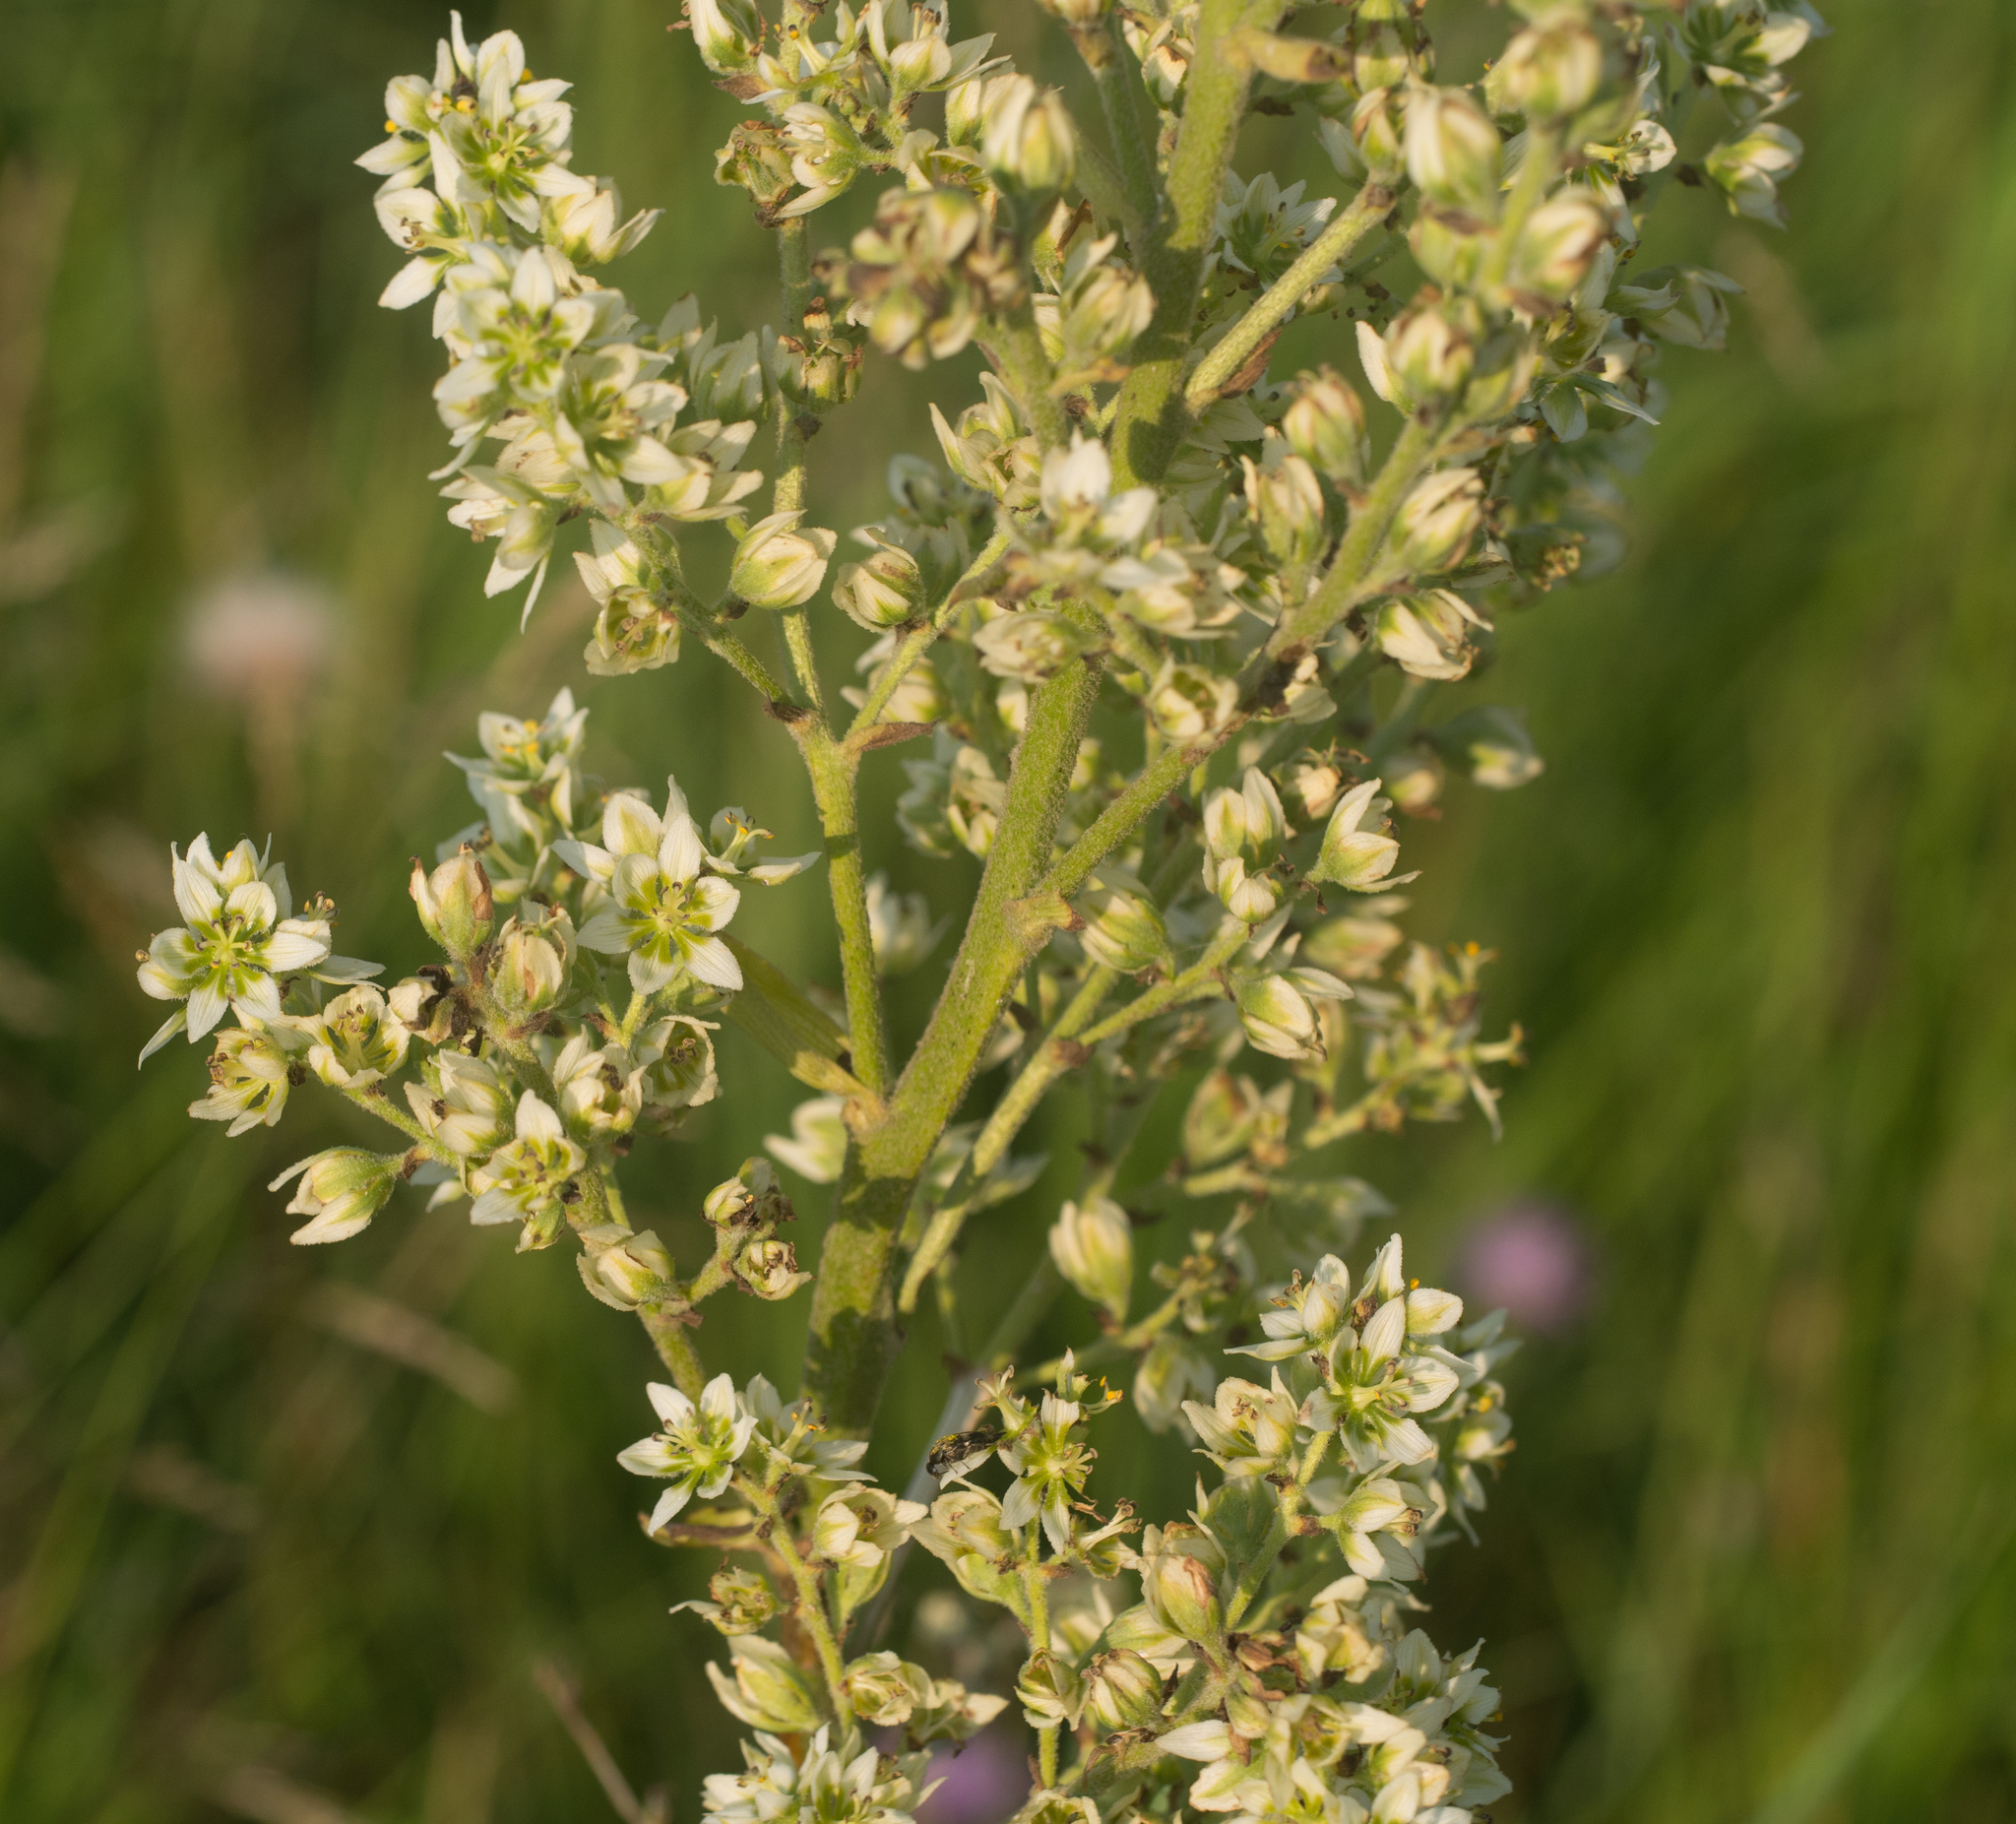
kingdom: Plantae
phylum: Tracheophyta
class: Liliopsida
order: Liliales
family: Melanthiaceae
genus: Veratrum
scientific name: Veratrum album
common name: White veratrum
